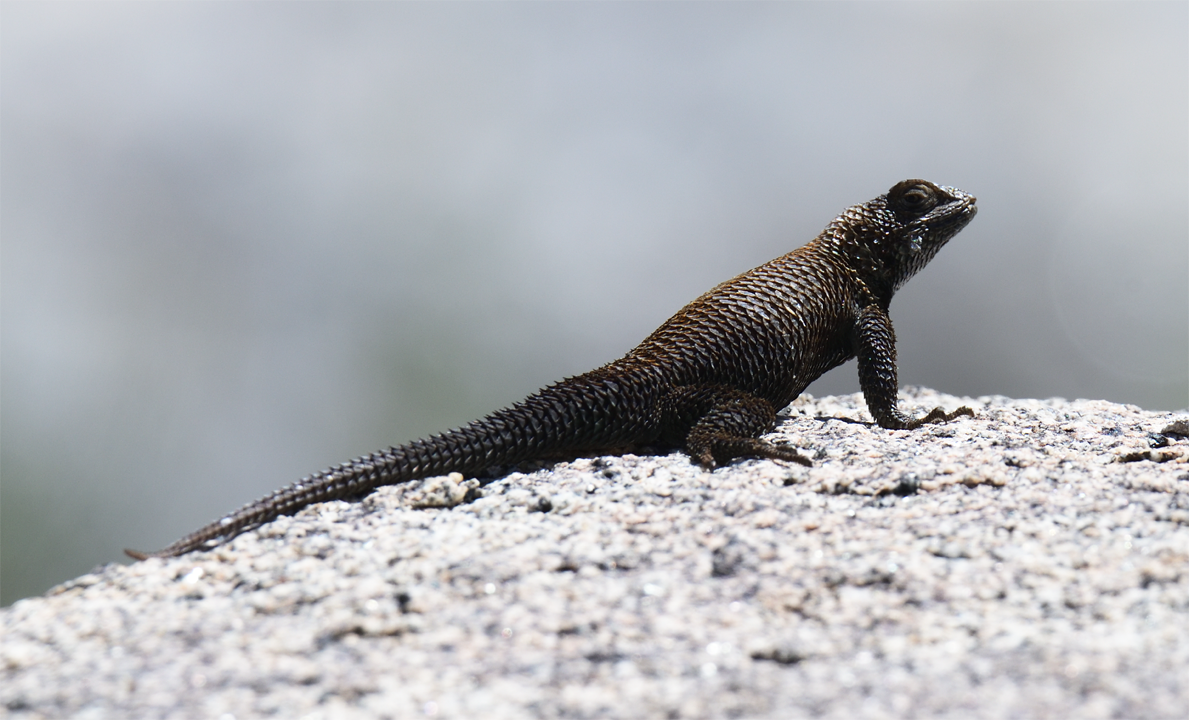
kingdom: Animalia
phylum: Chordata
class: Squamata
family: Phrynosomatidae
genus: Sceloporus
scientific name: Sceloporus orcutti
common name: Granite spiny lizard
